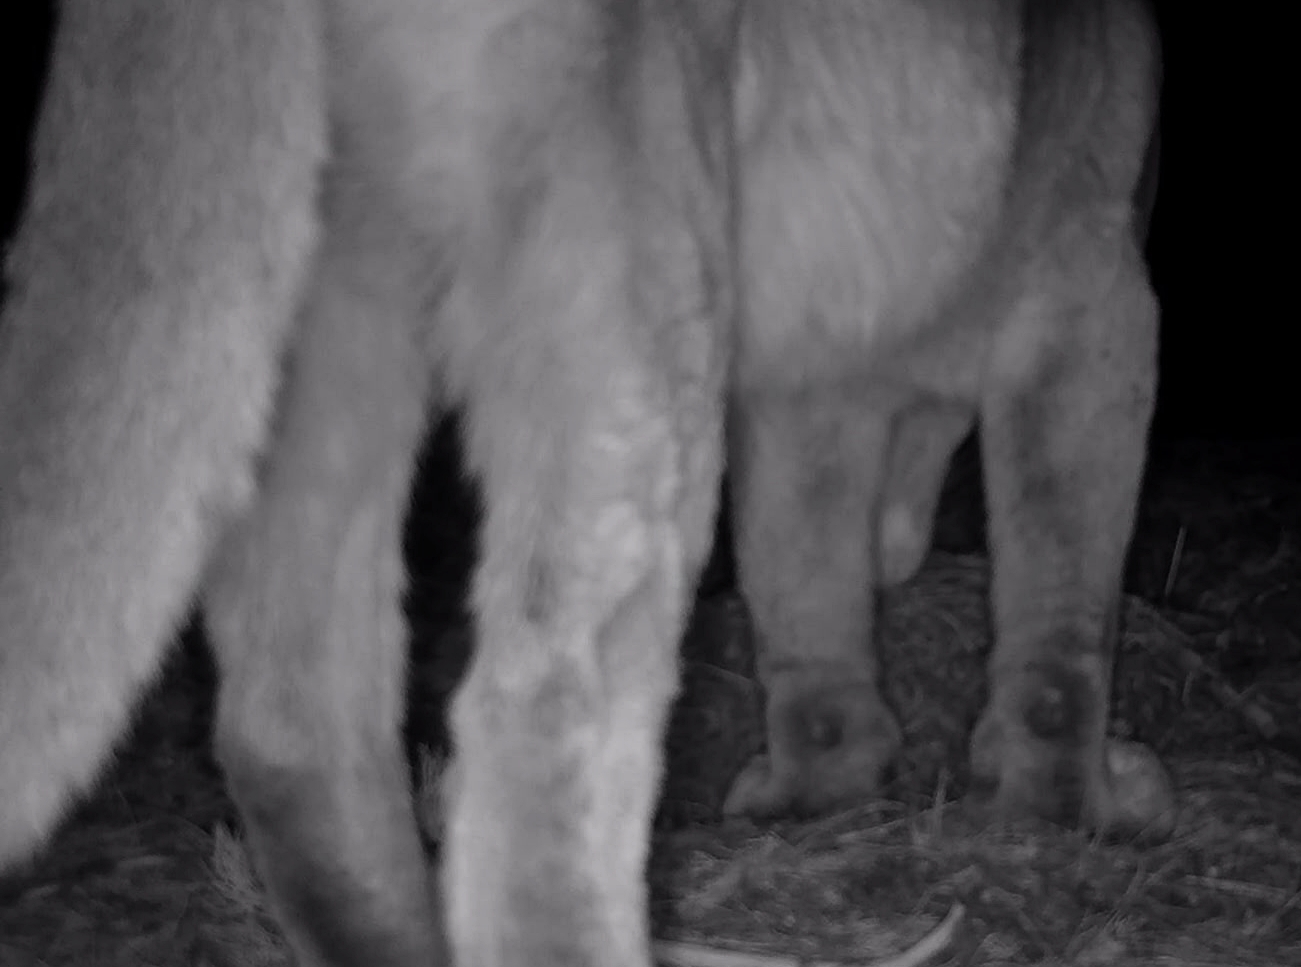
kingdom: Animalia
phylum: Chordata
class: Mammalia
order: Carnivora
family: Felidae
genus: Puma
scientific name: Puma concolor
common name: Puma
